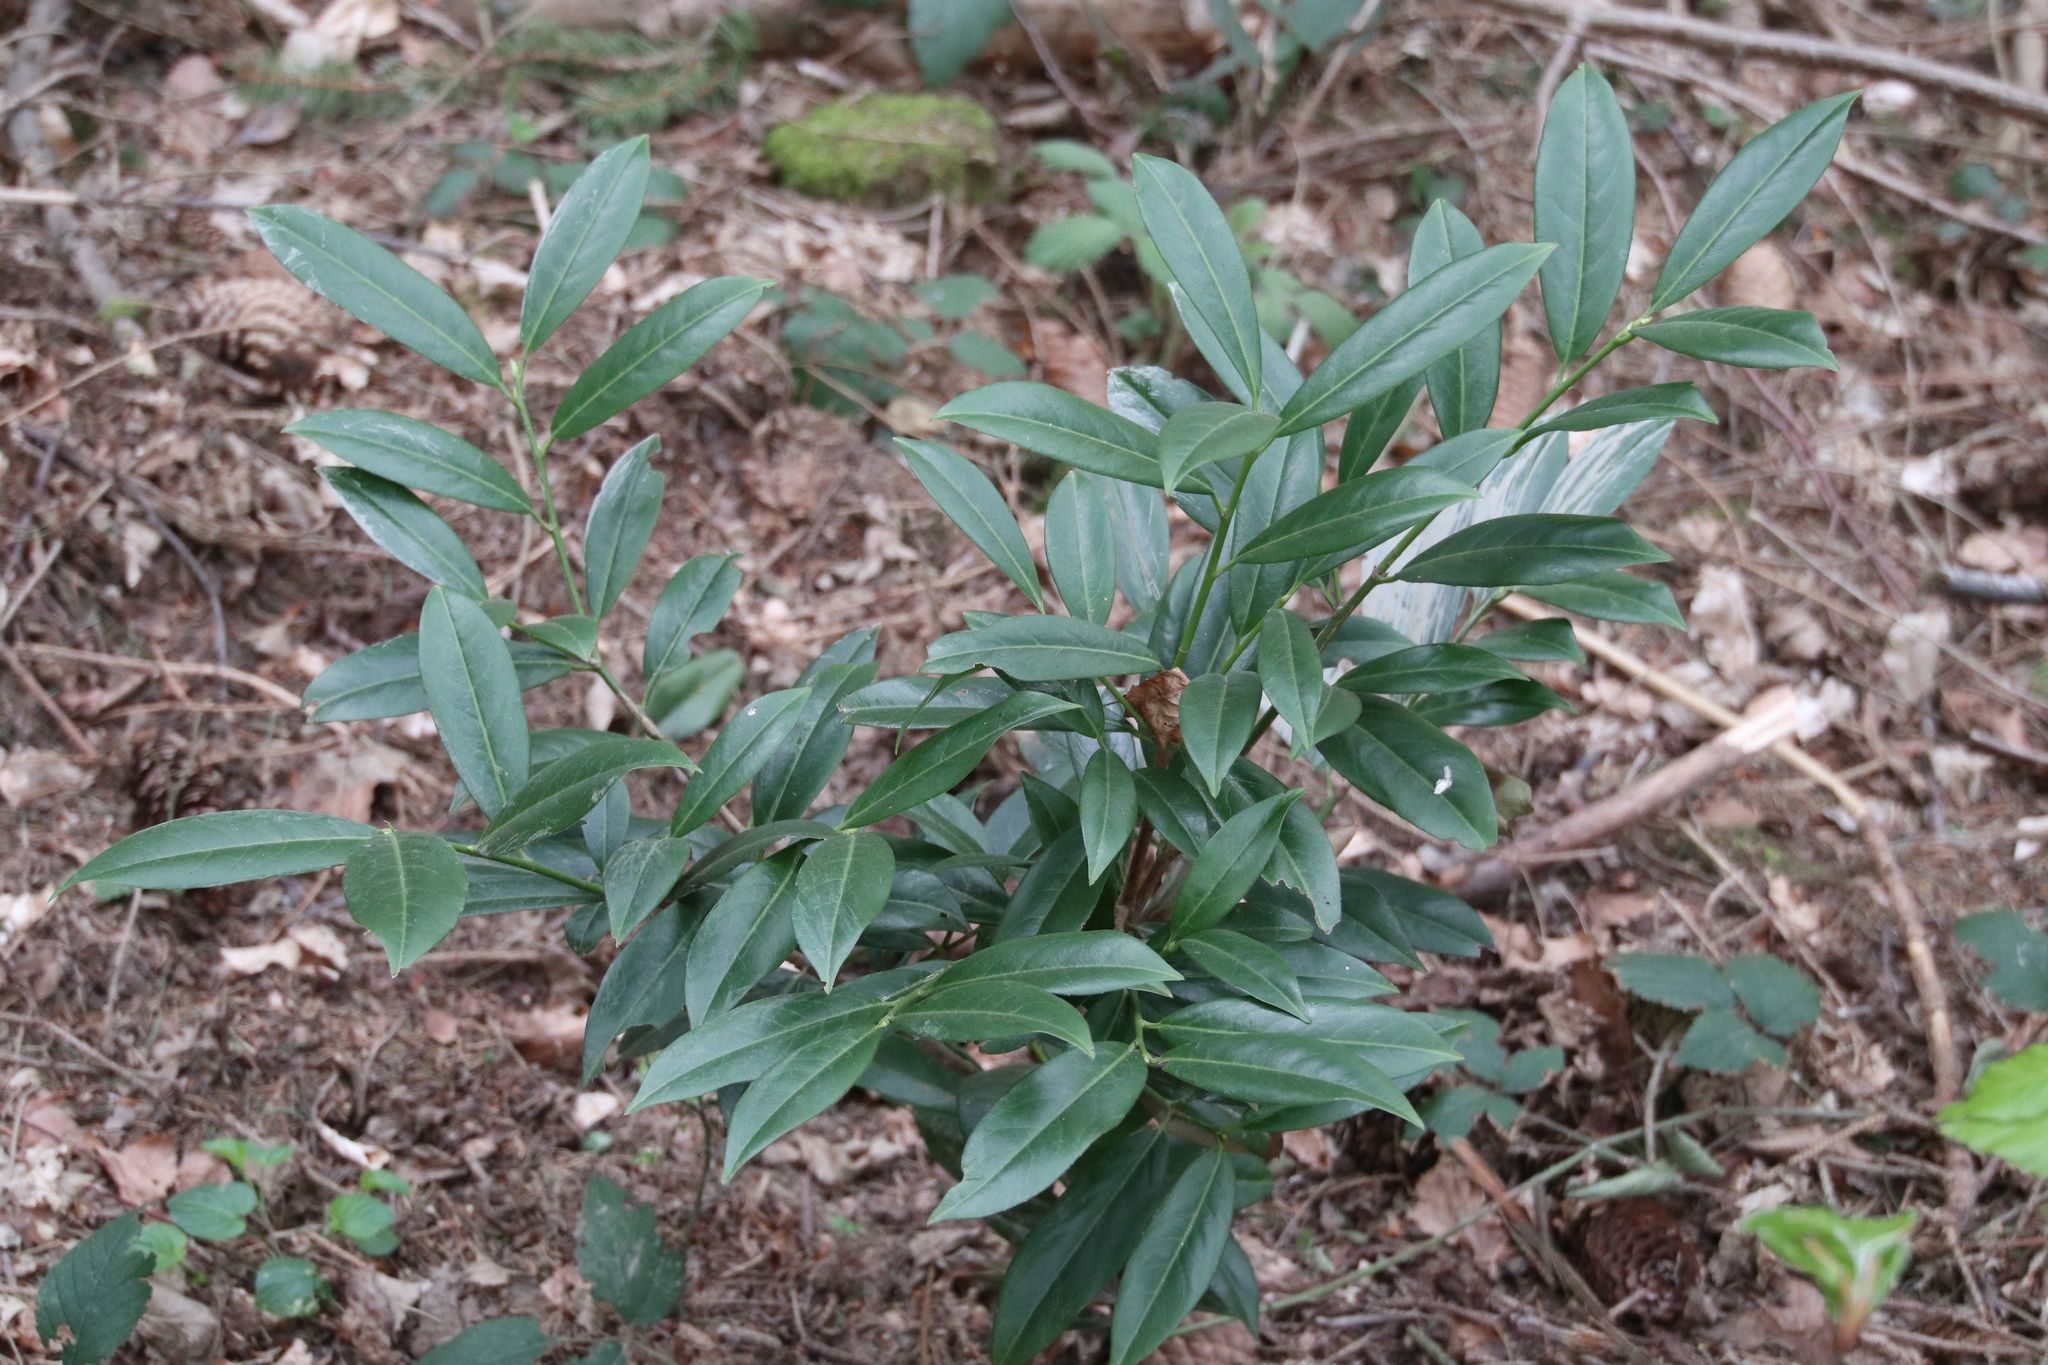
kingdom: Plantae
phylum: Tracheophyta
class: Magnoliopsida
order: Rosales
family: Rosaceae
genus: Prunus
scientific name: Prunus laurocerasus
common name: Cherry laurel
